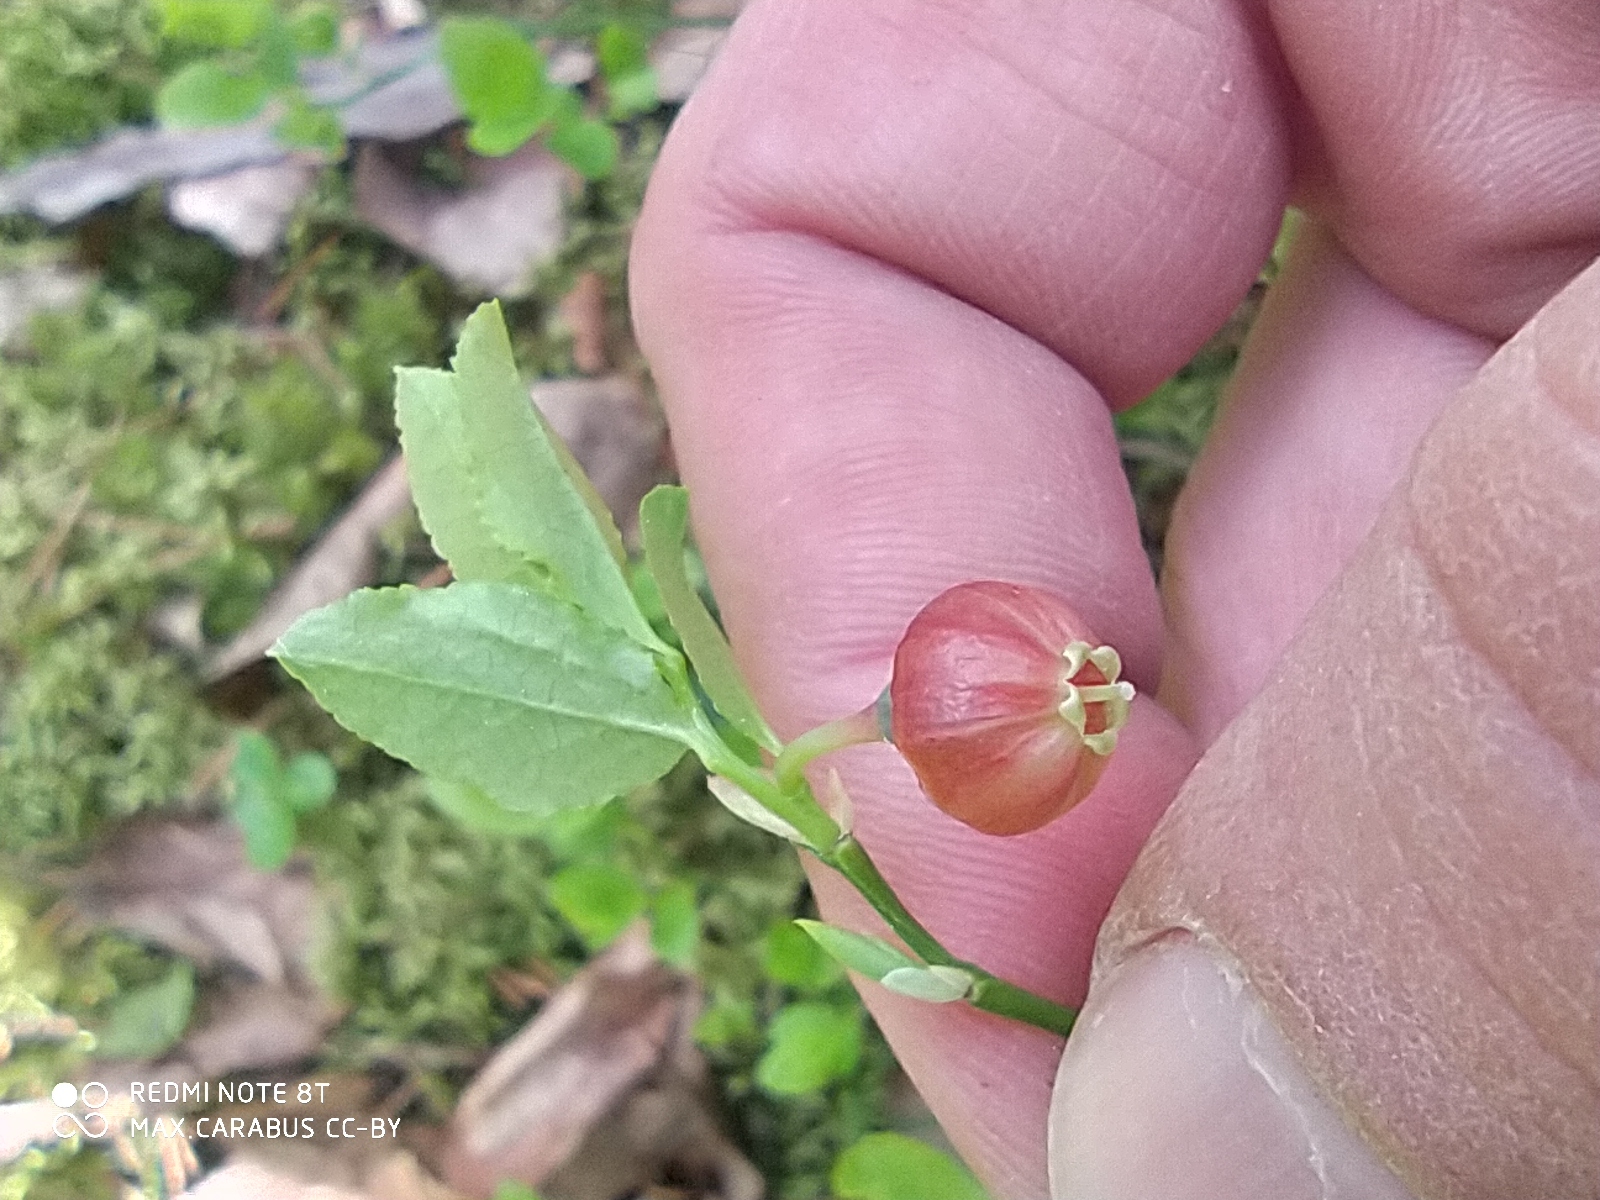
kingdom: Plantae
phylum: Tracheophyta
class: Magnoliopsida
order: Ericales
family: Ericaceae
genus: Vaccinium
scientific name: Vaccinium myrtillus
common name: Bilberry
